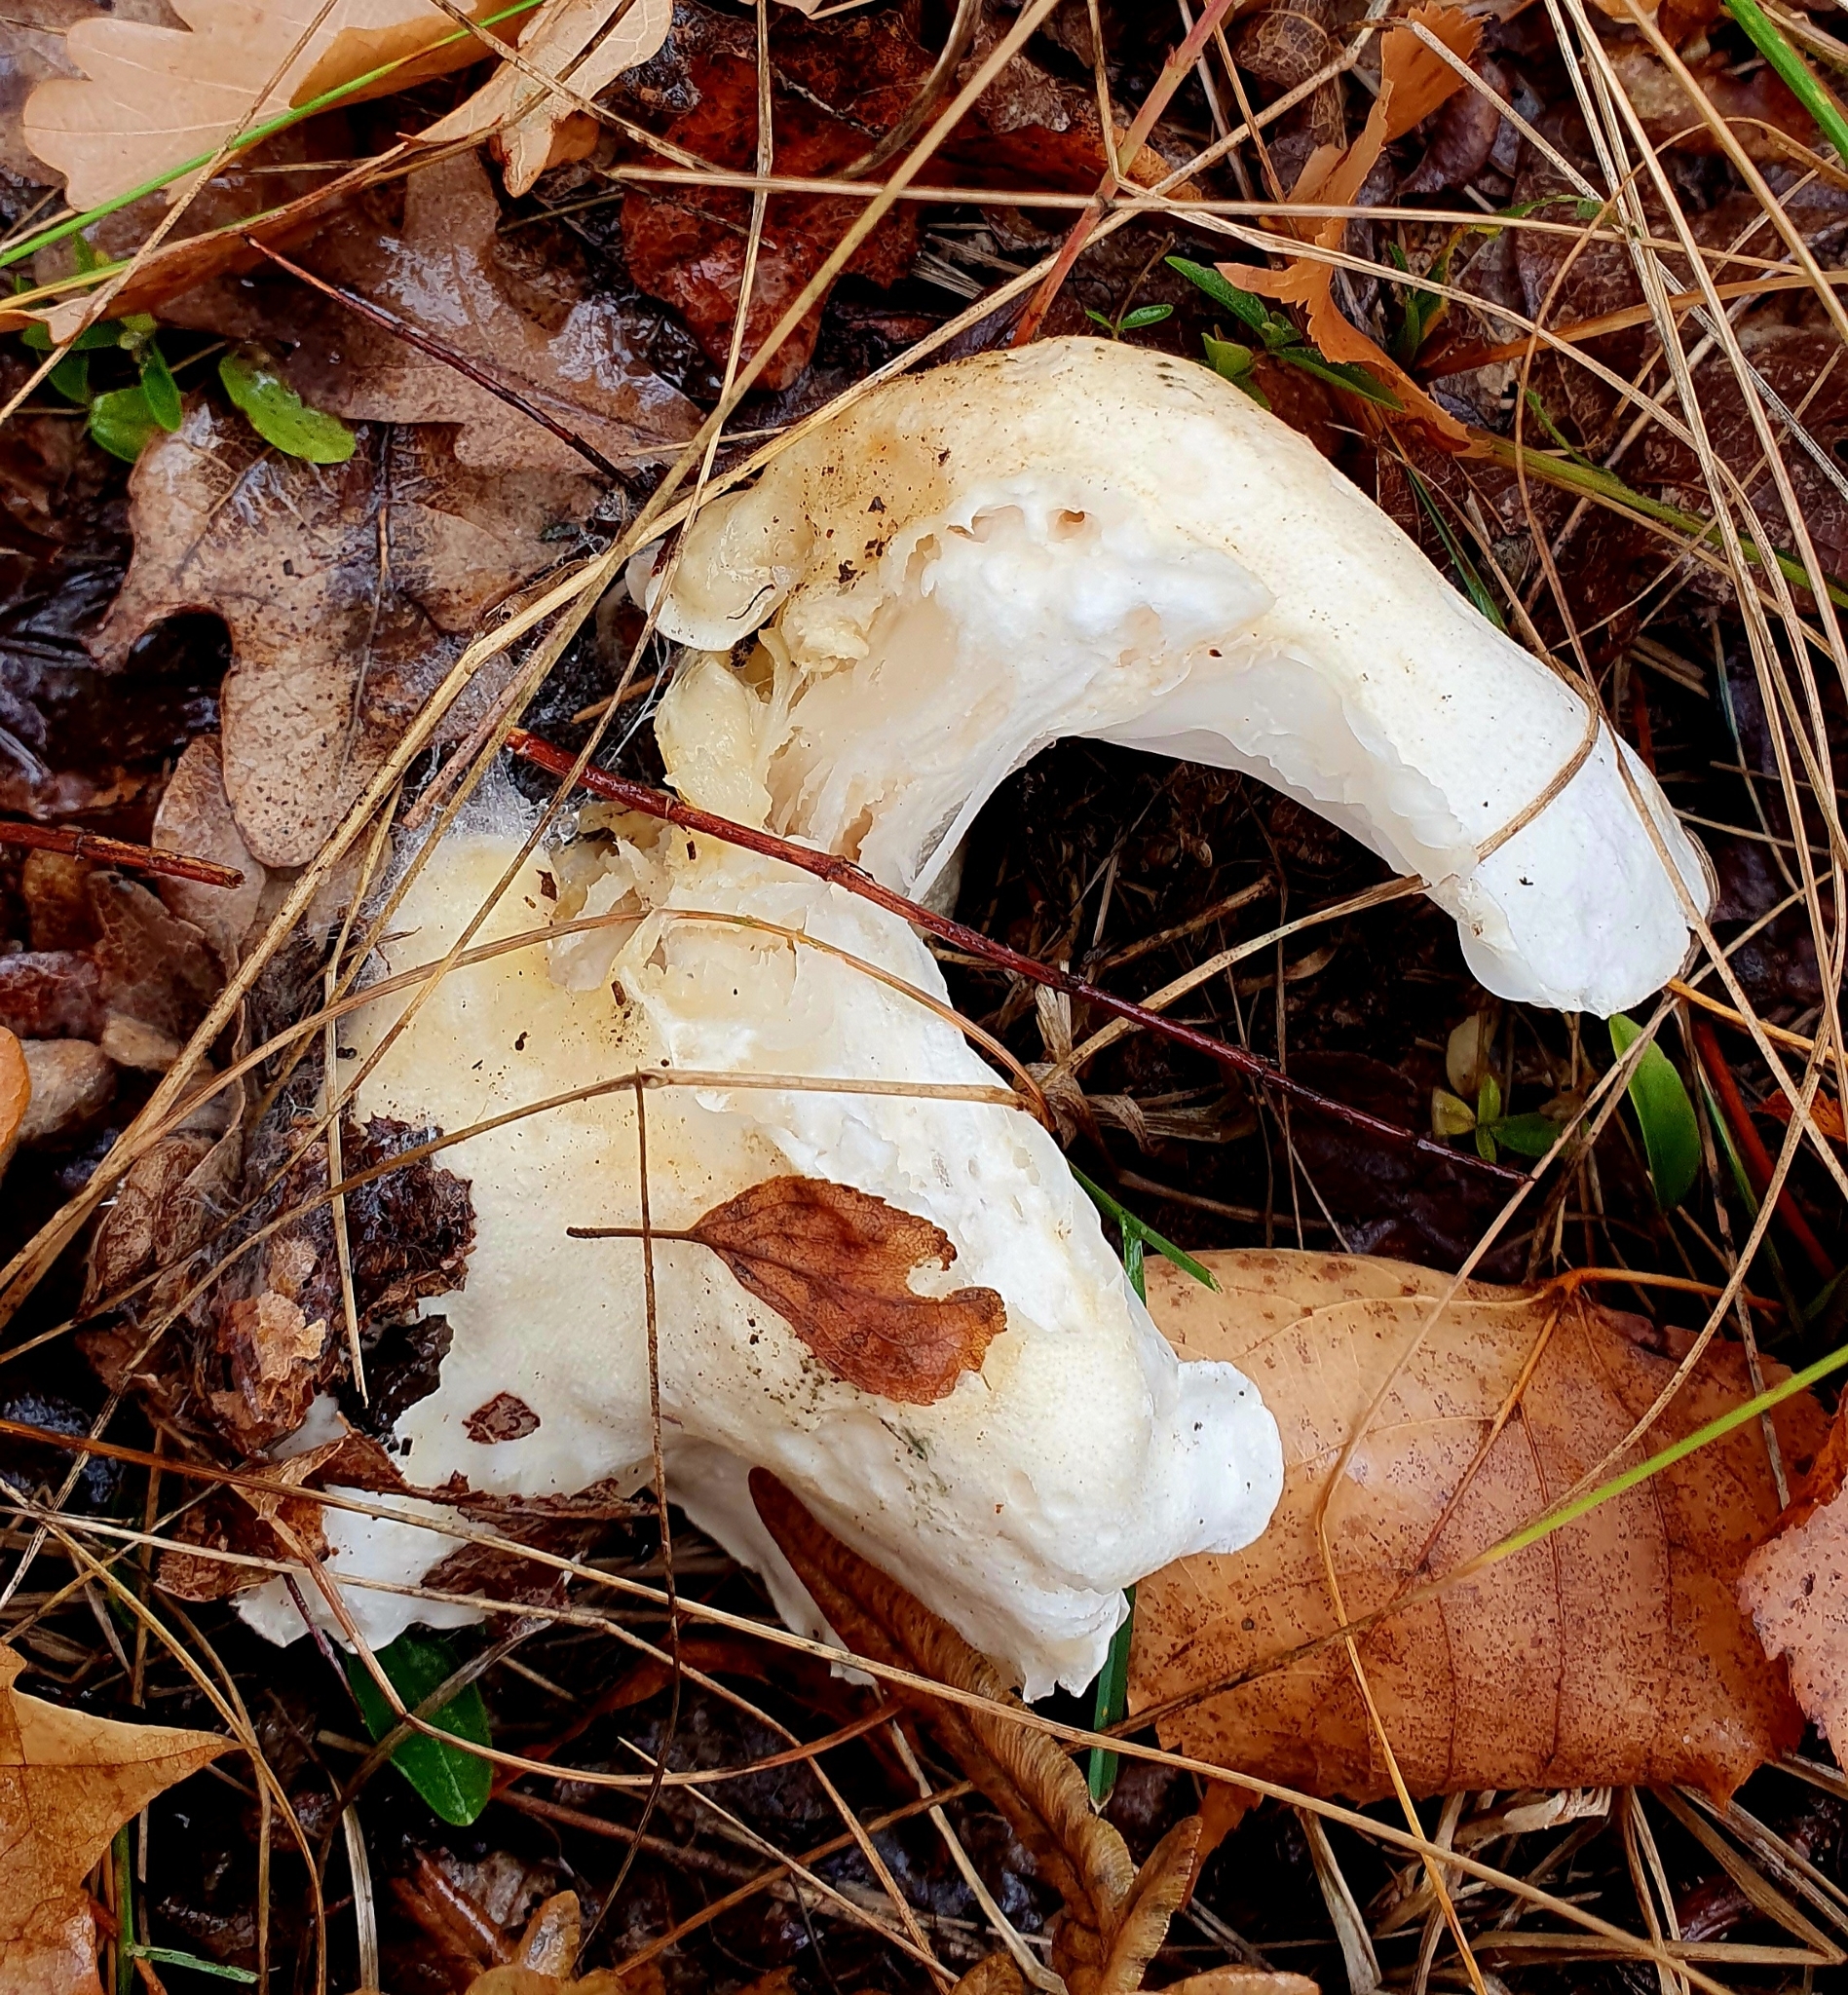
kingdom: Fungi
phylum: Basidiomycota
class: Agaricomycetes
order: Agaricales
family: Tricholomataceae
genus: Tricholoma
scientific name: Tricholoma columbetta
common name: Blue spot knight
